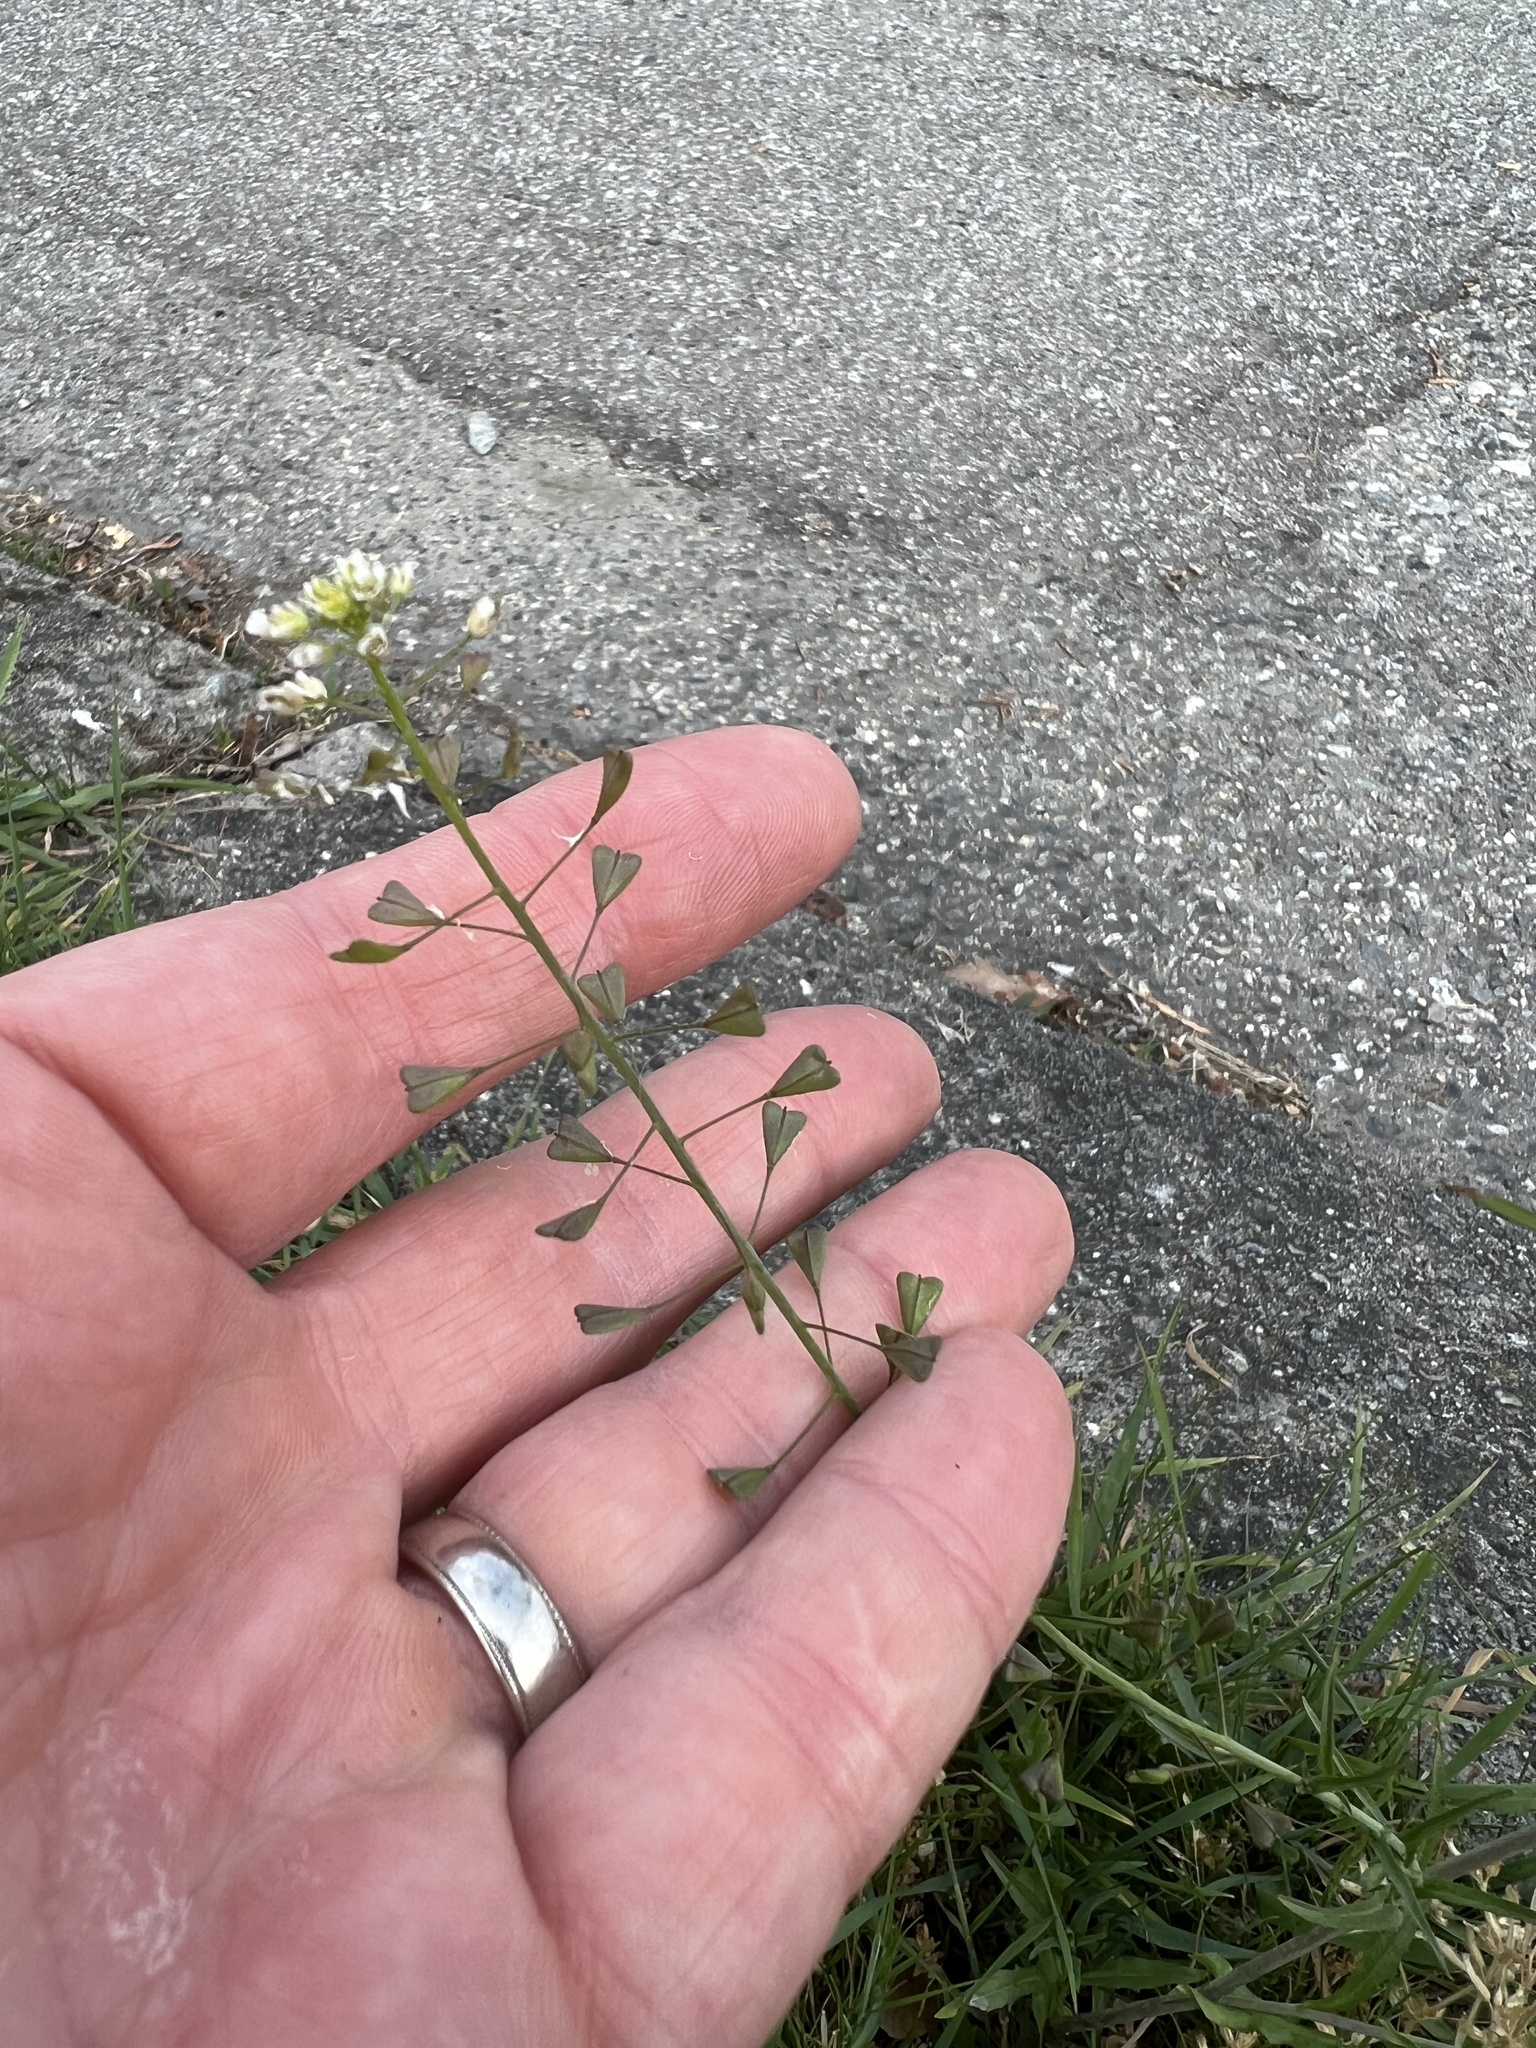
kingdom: Plantae
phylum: Tracheophyta
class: Magnoliopsida
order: Brassicales
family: Brassicaceae
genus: Capsella
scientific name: Capsella bursa-pastoris
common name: Shepherd's purse
